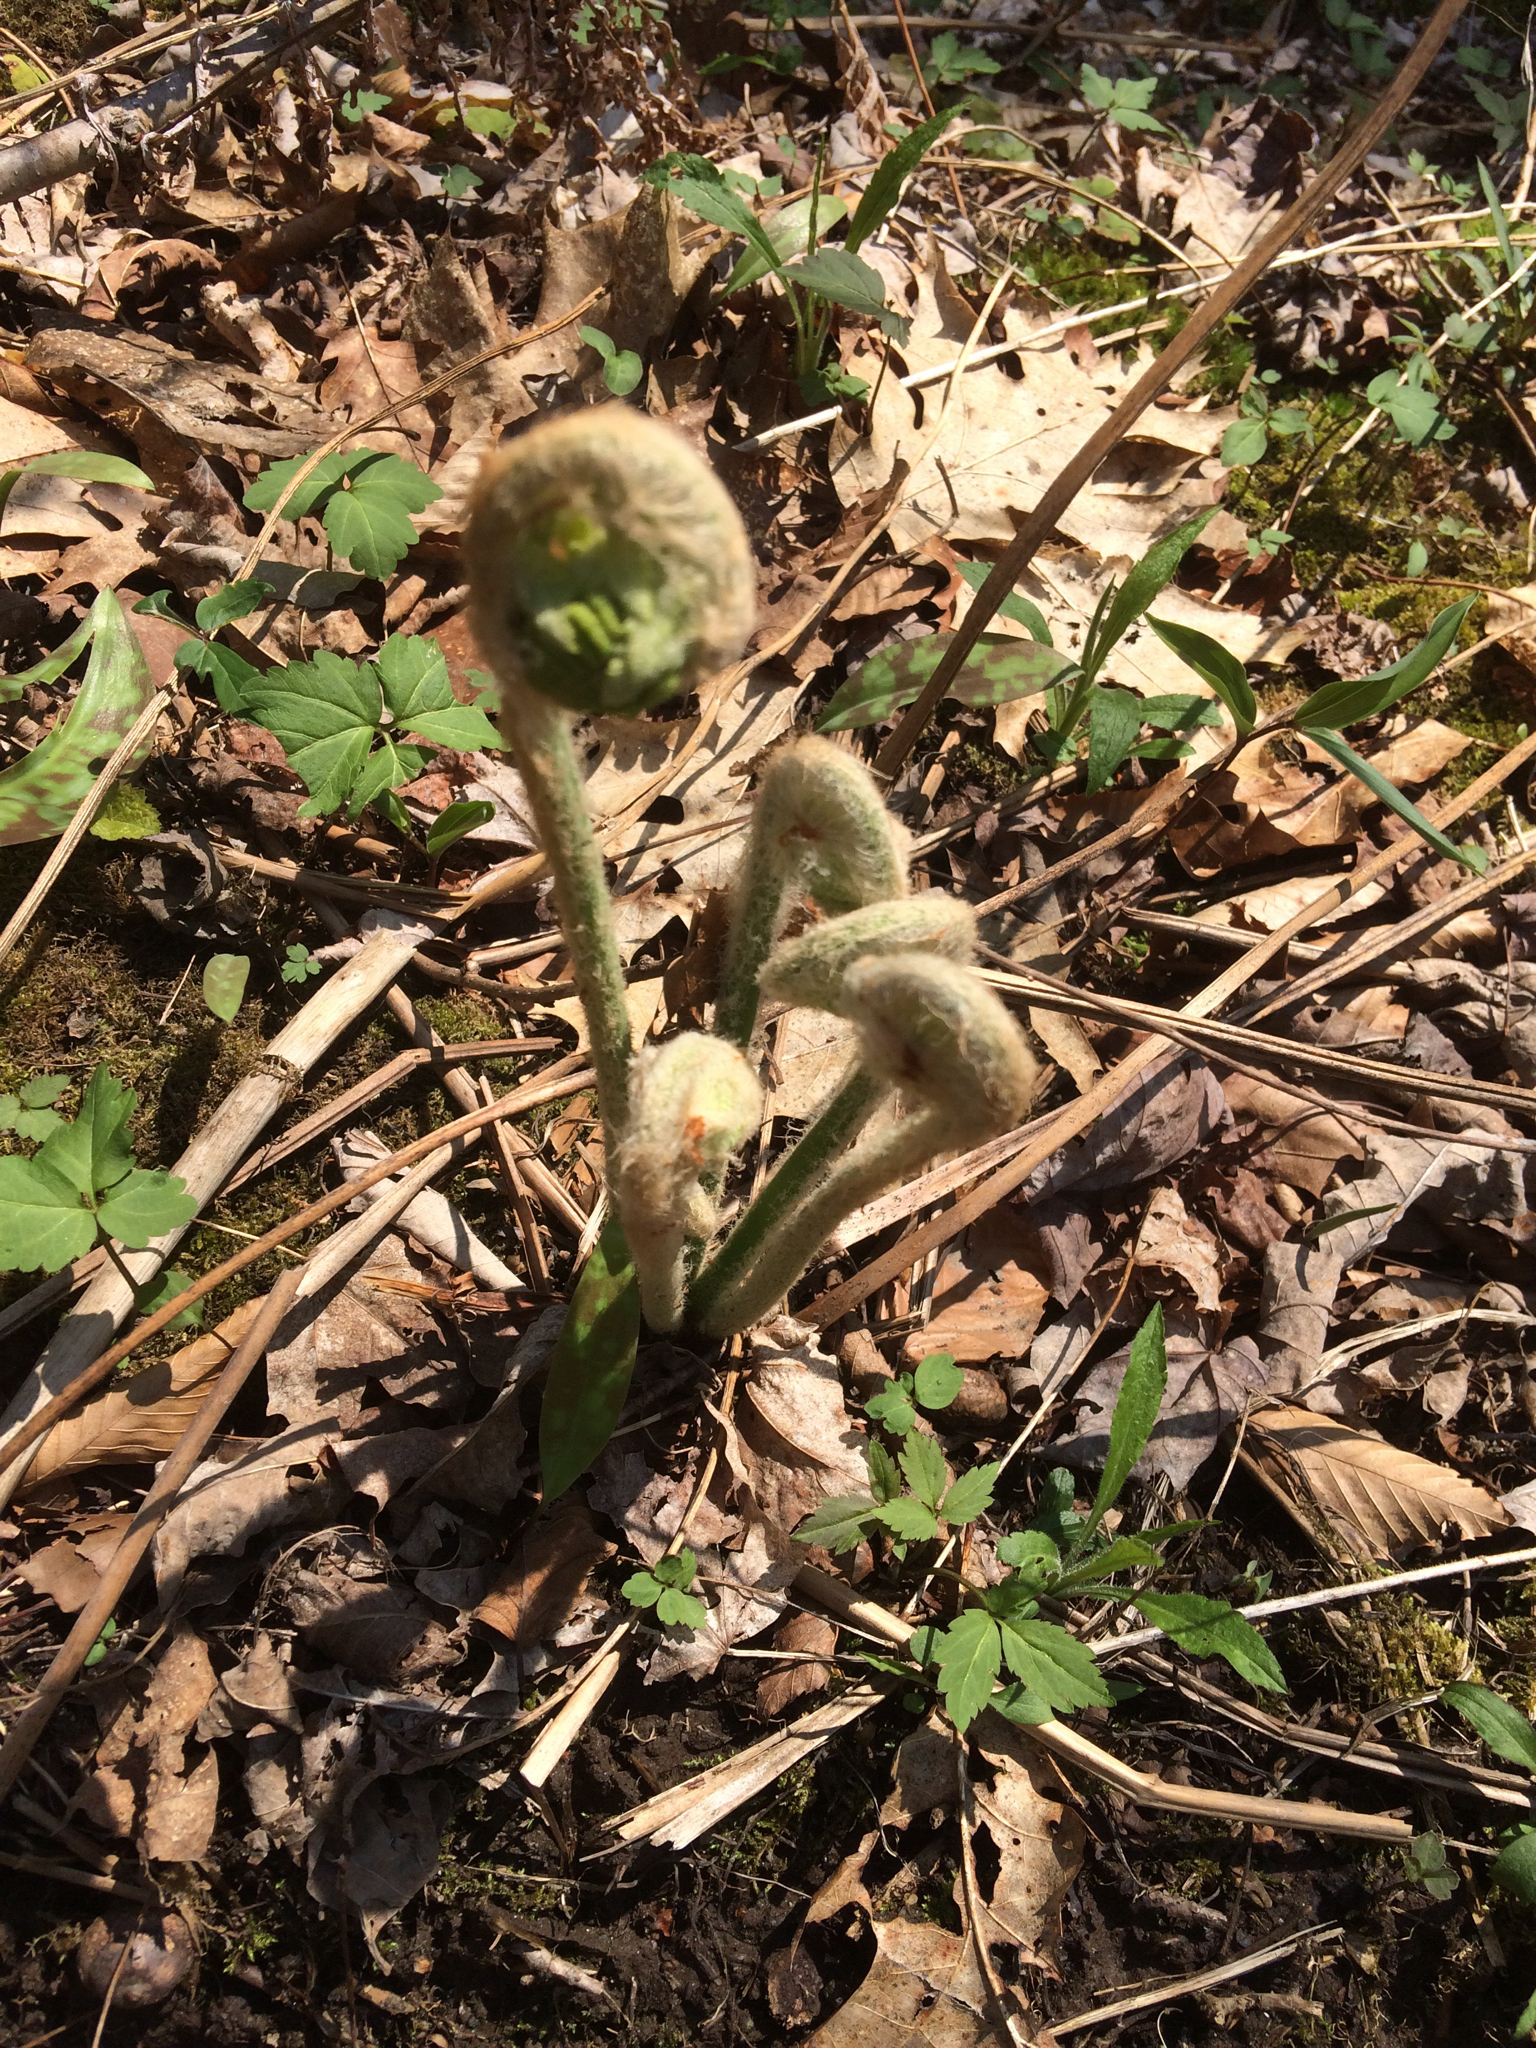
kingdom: Plantae
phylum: Tracheophyta
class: Polypodiopsida
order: Osmundales
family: Osmundaceae
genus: Osmundastrum
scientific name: Osmundastrum cinnamomeum
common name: Cinnamon fern
